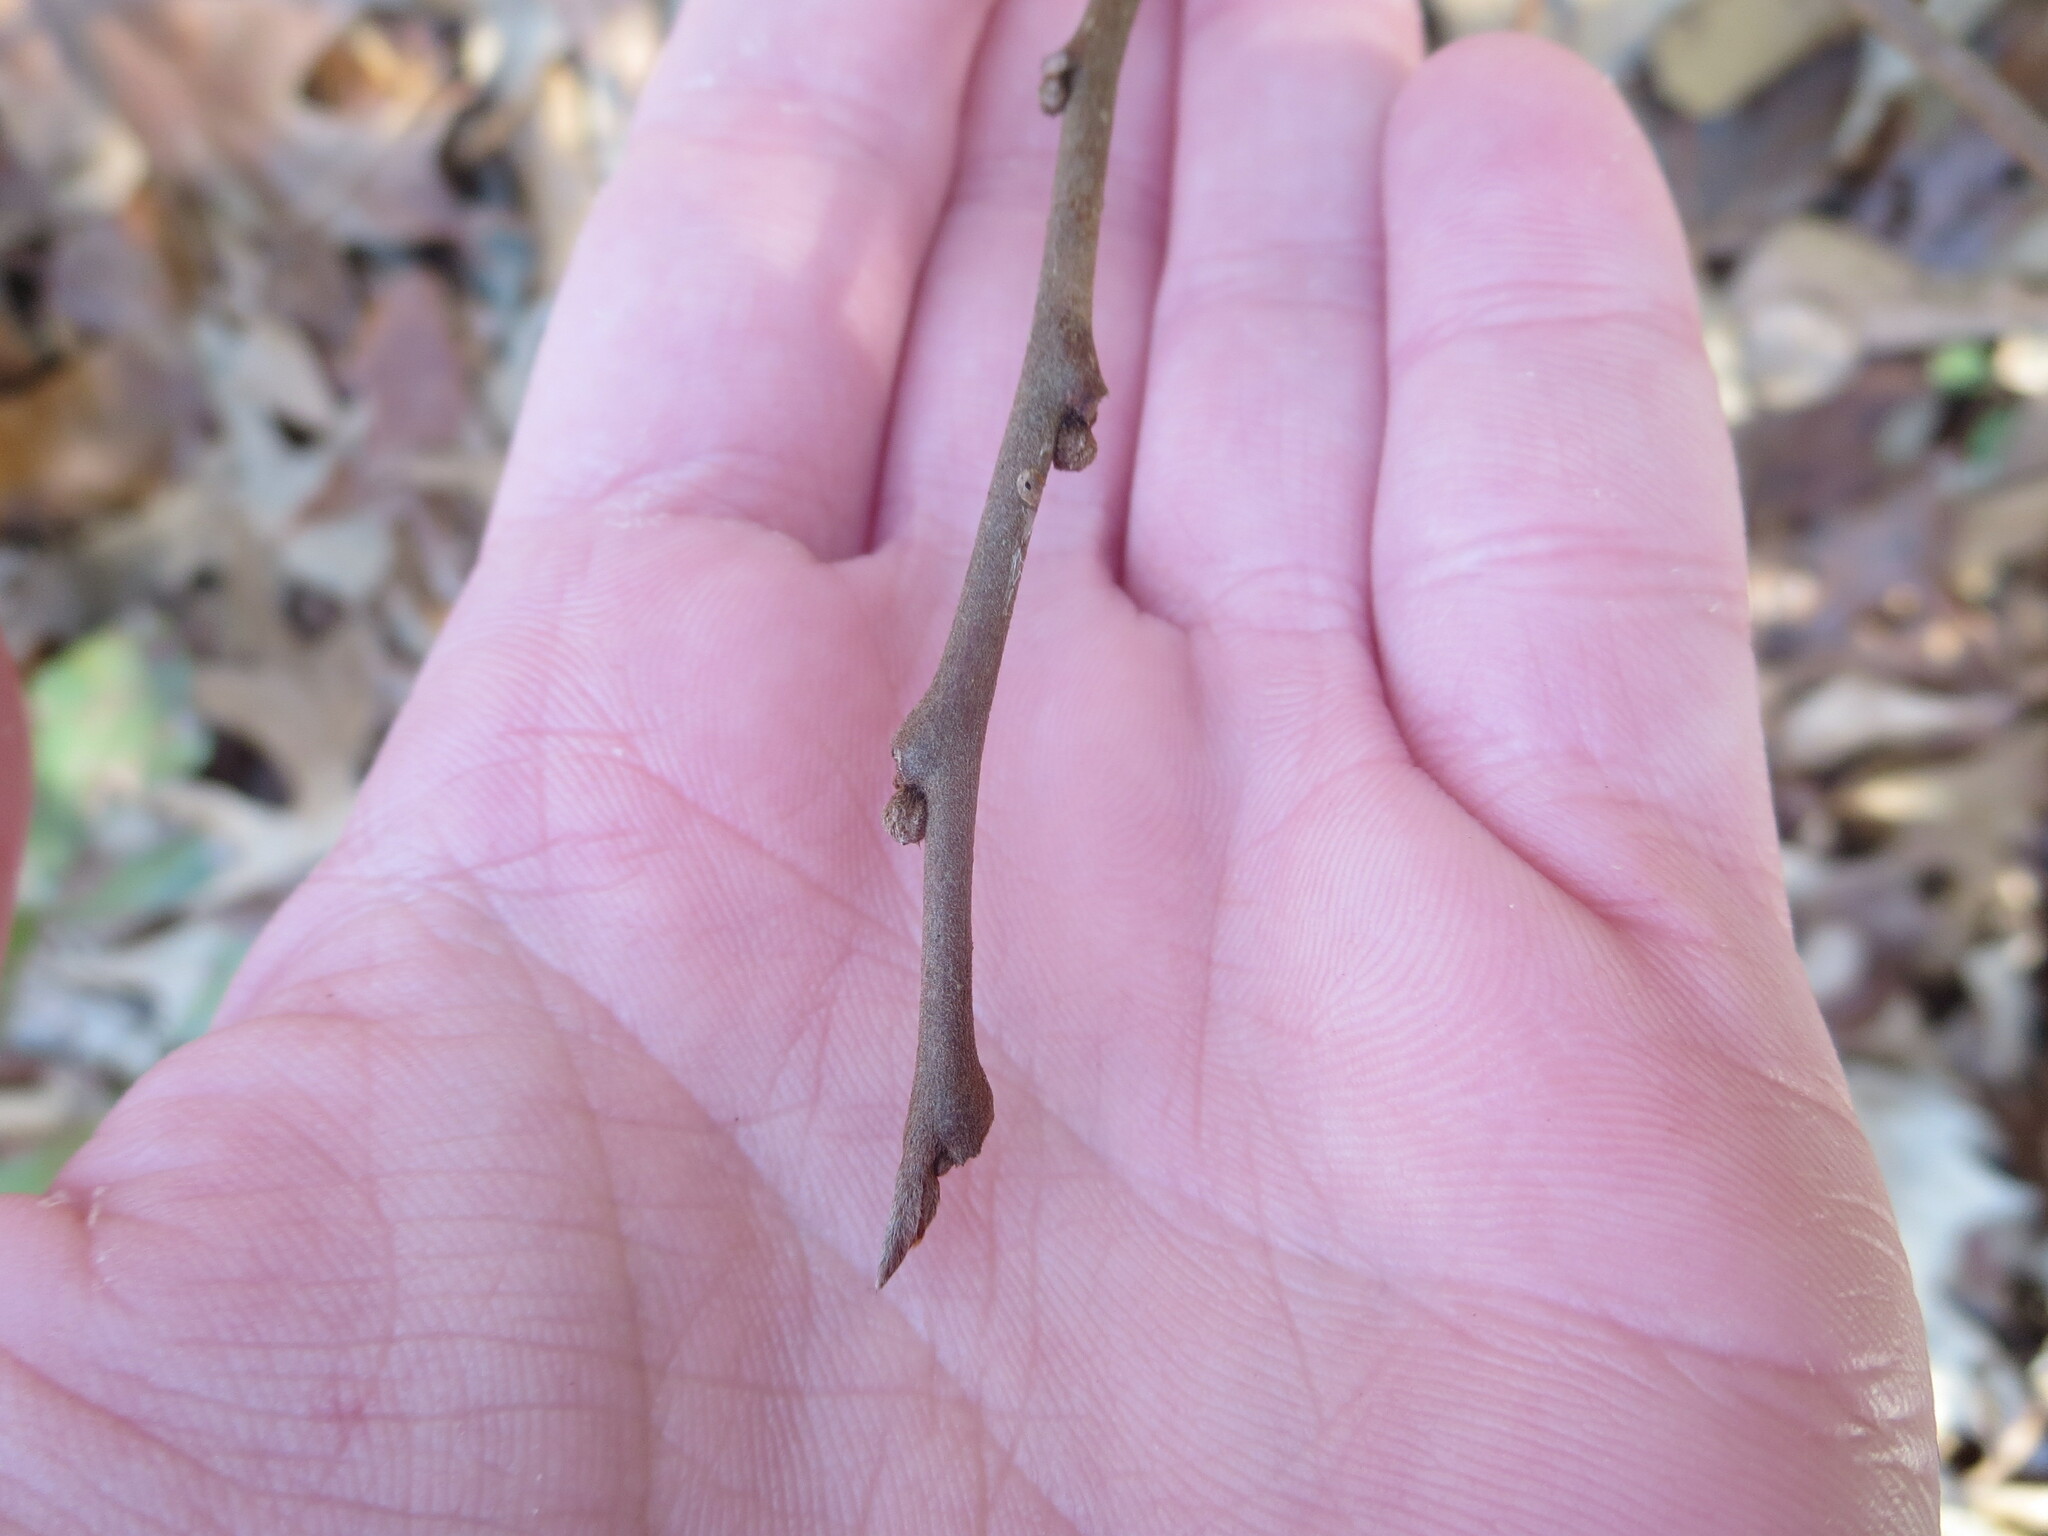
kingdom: Plantae
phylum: Tracheophyta
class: Magnoliopsida
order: Magnoliales
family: Annonaceae
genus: Asimina
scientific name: Asimina parviflora
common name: Dwarf pawpaw
